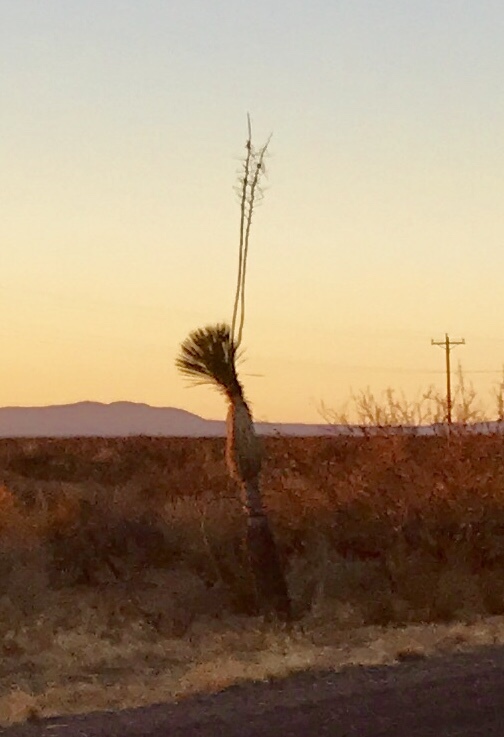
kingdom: Plantae
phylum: Tracheophyta
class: Liliopsida
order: Asparagales
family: Asparagaceae
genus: Yucca
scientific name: Yucca elata
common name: Palmella
